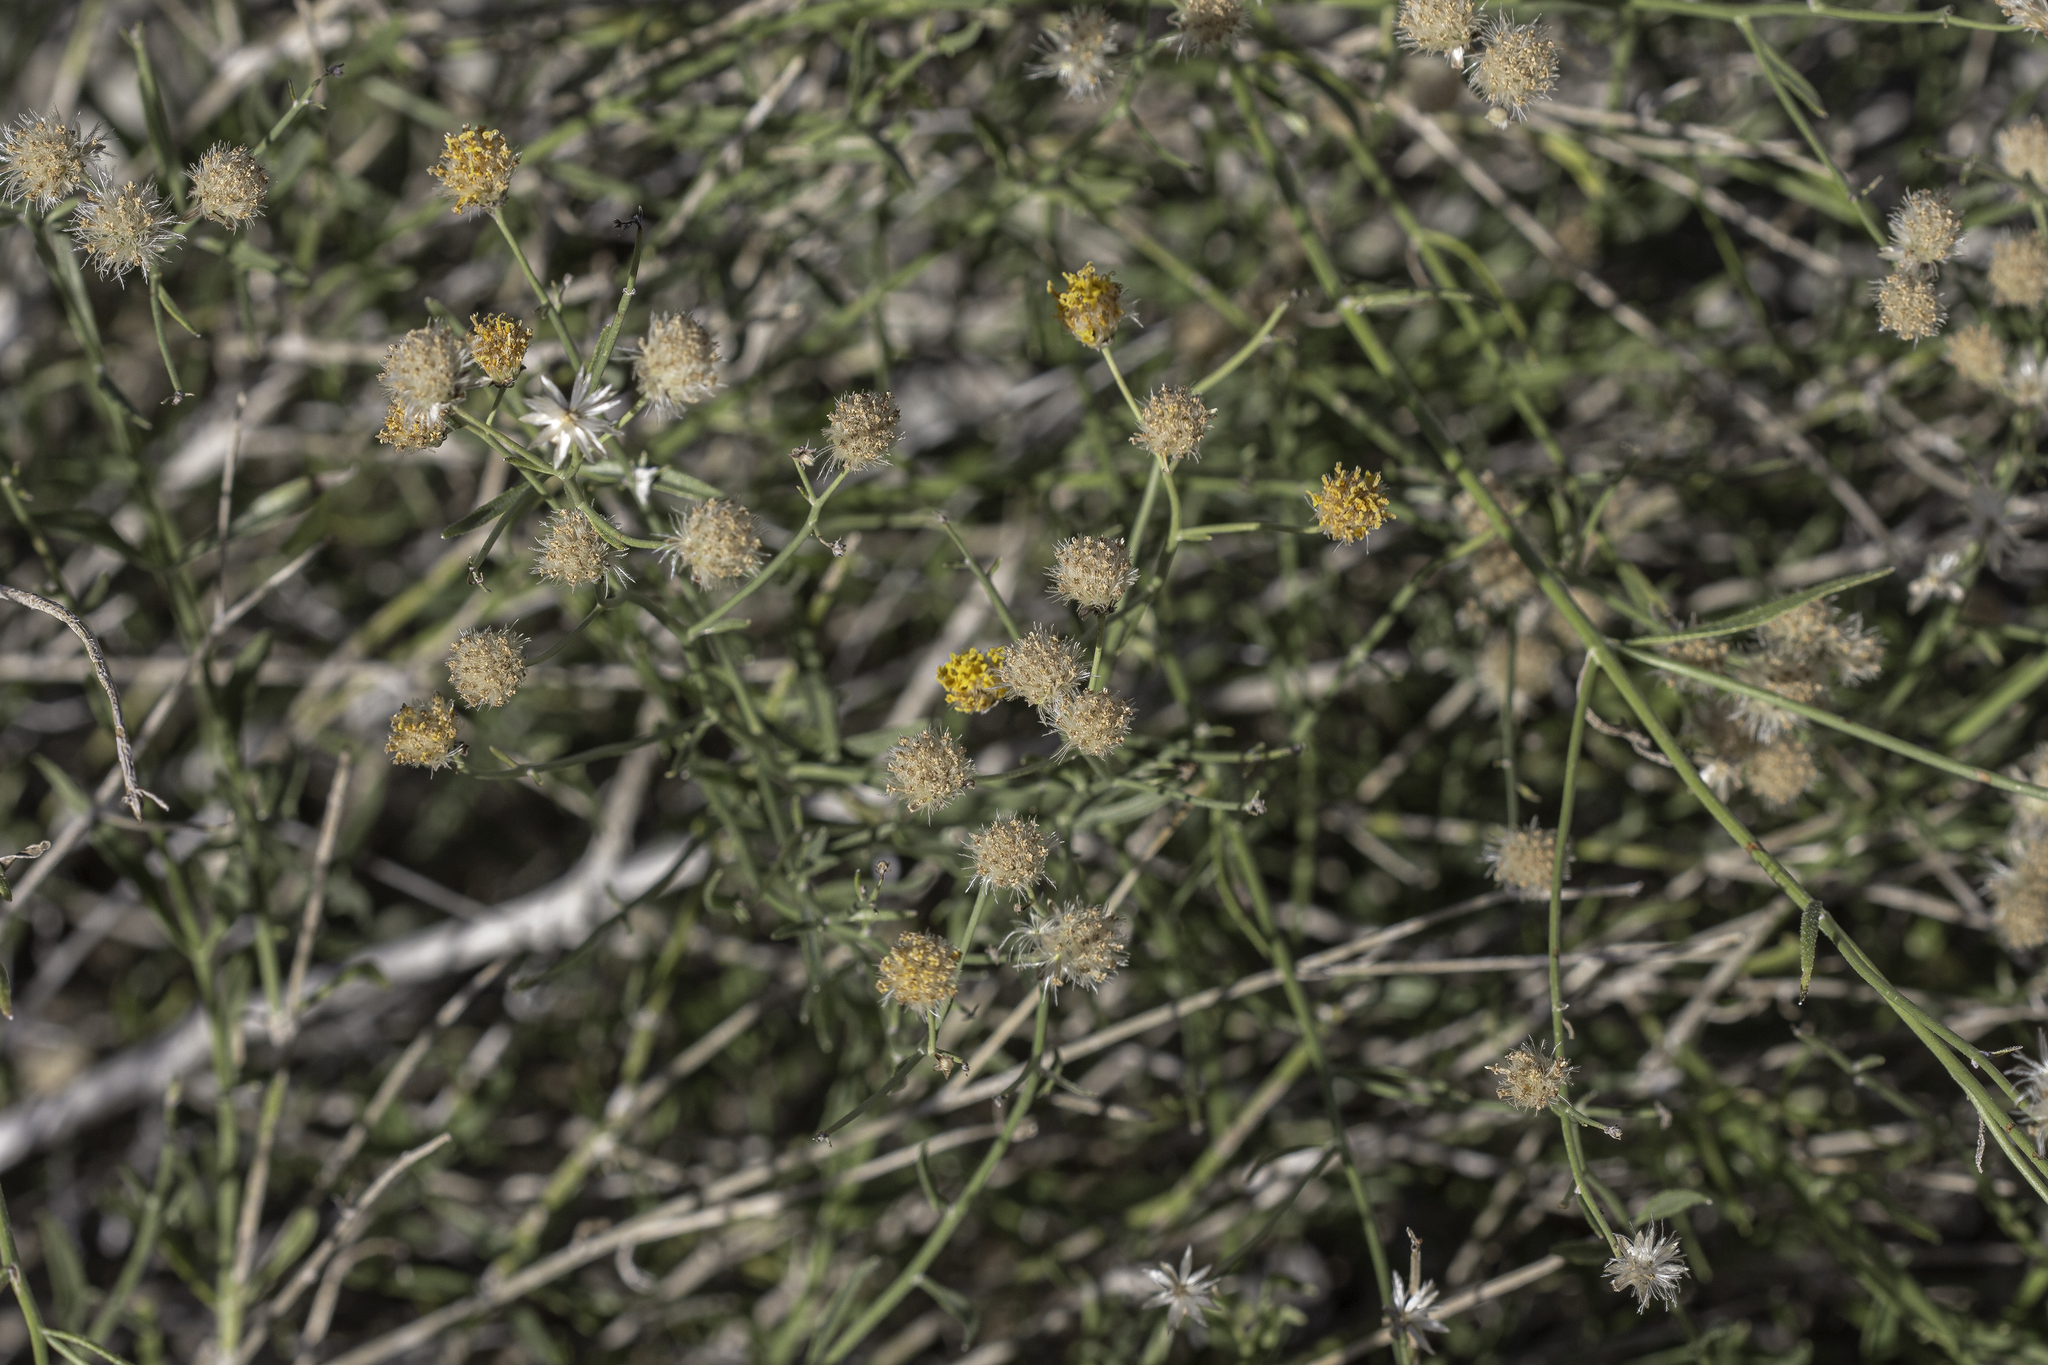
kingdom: Plantae
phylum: Tracheophyta
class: Magnoliopsida
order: Asterales
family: Asteraceae
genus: Bebbia
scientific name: Bebbia juncea
